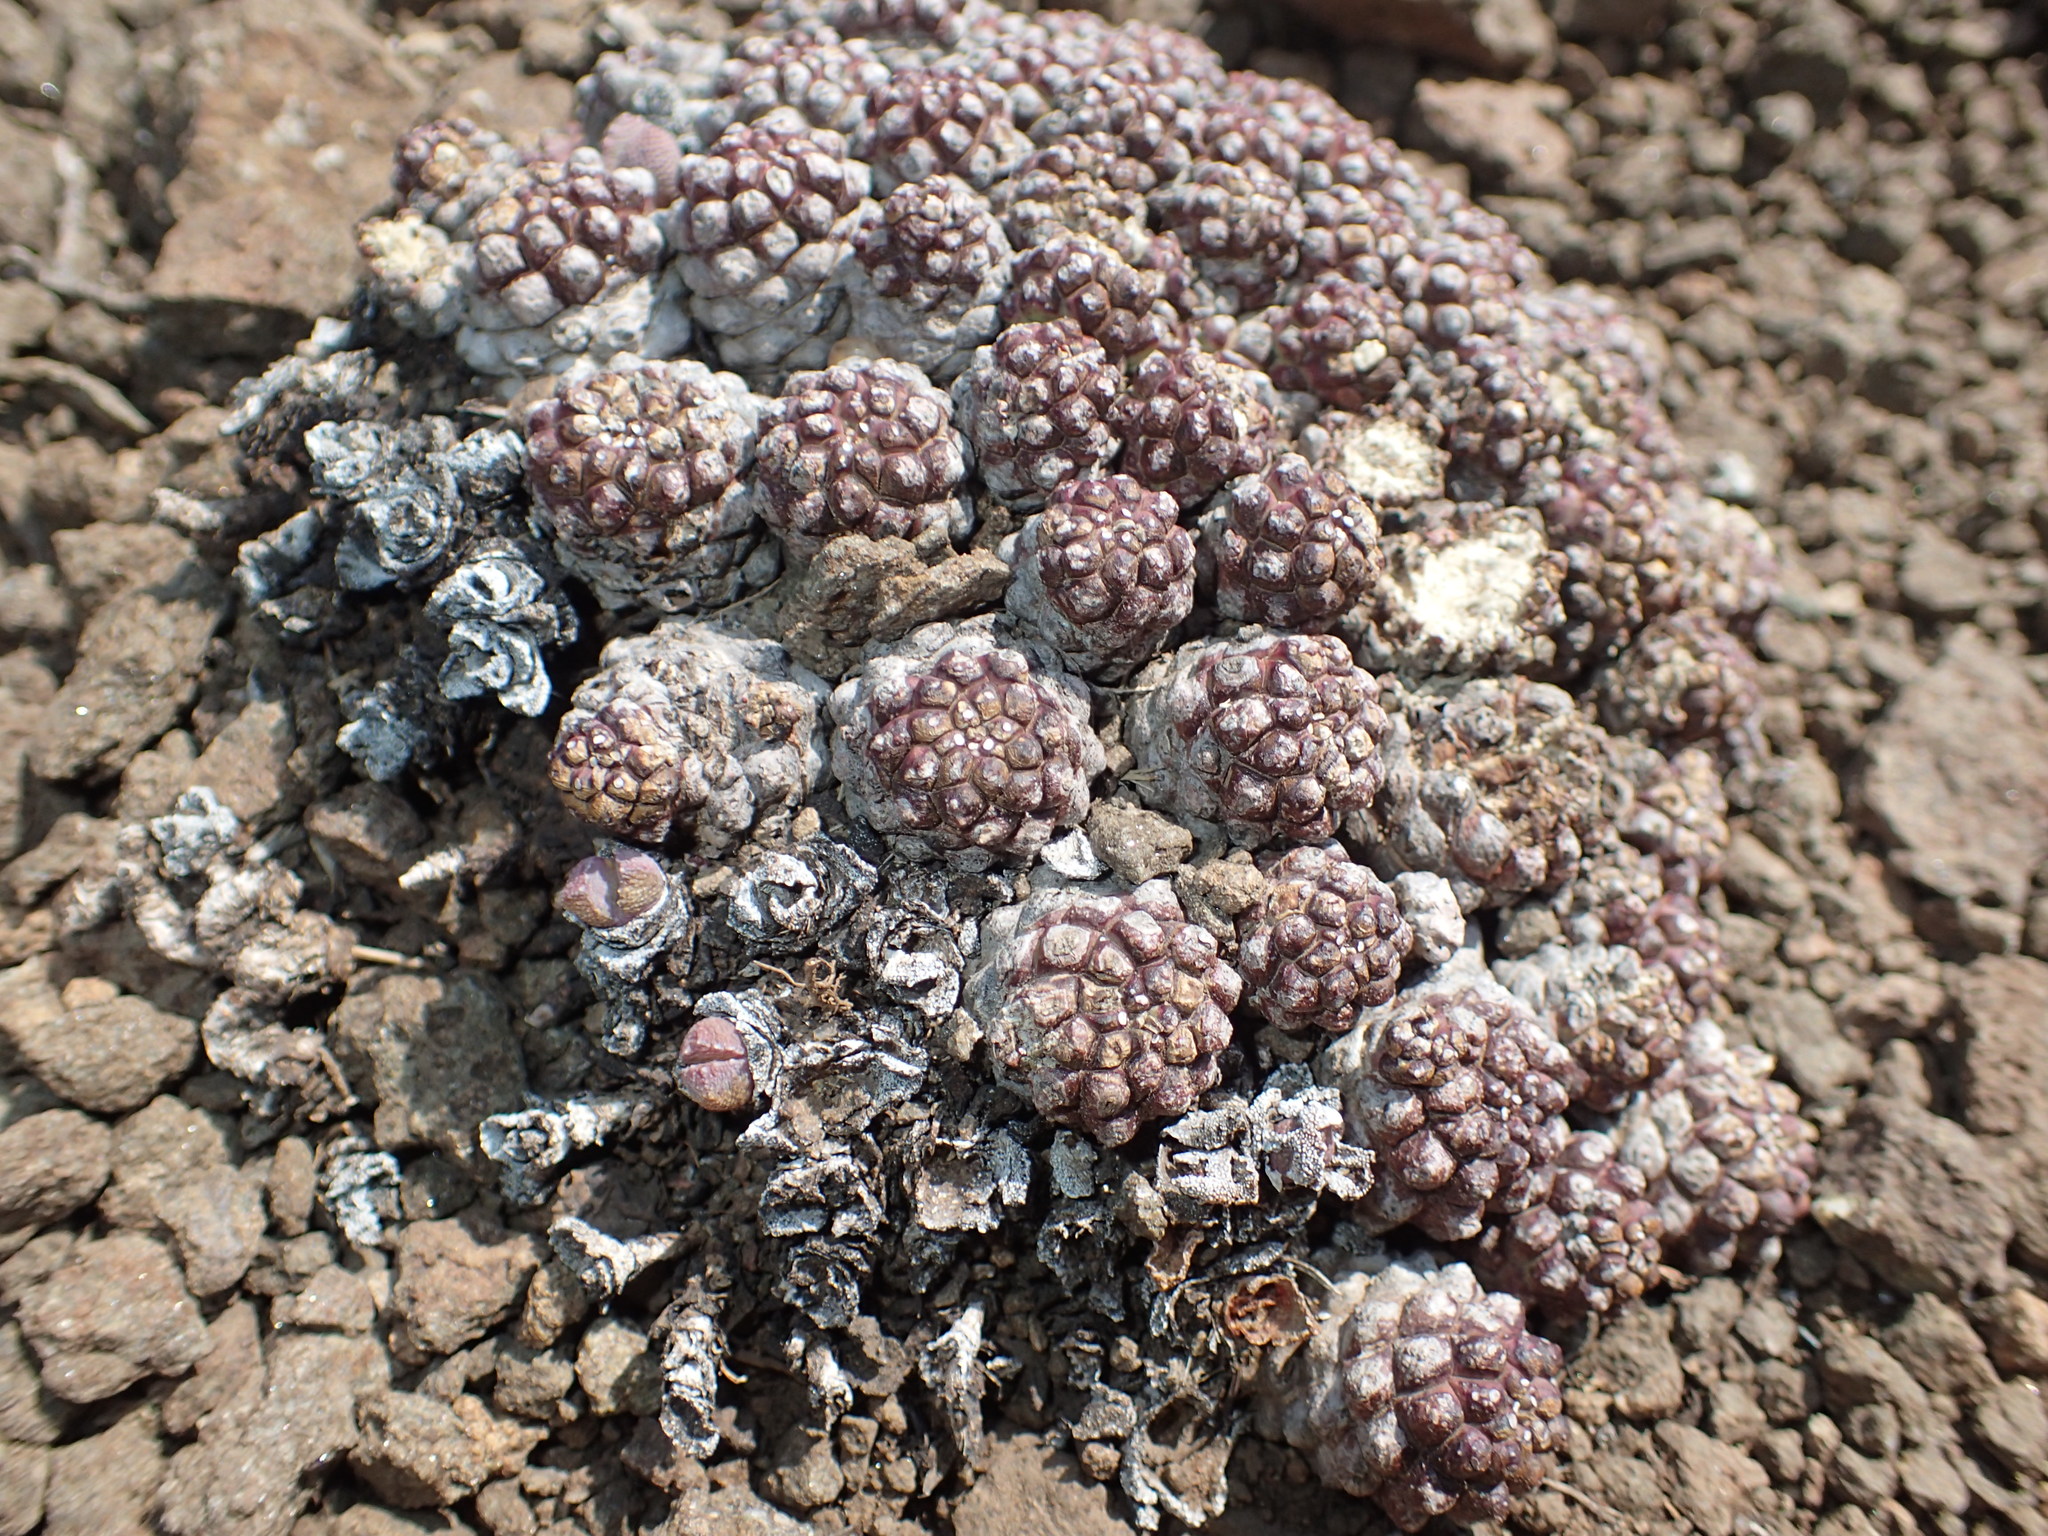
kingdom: Plantae
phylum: Tracheophyta
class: Magnoliopsida
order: Malpighiales
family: Euphorbiaceae
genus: Euphorbia
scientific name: Euphorbia clavarioides
